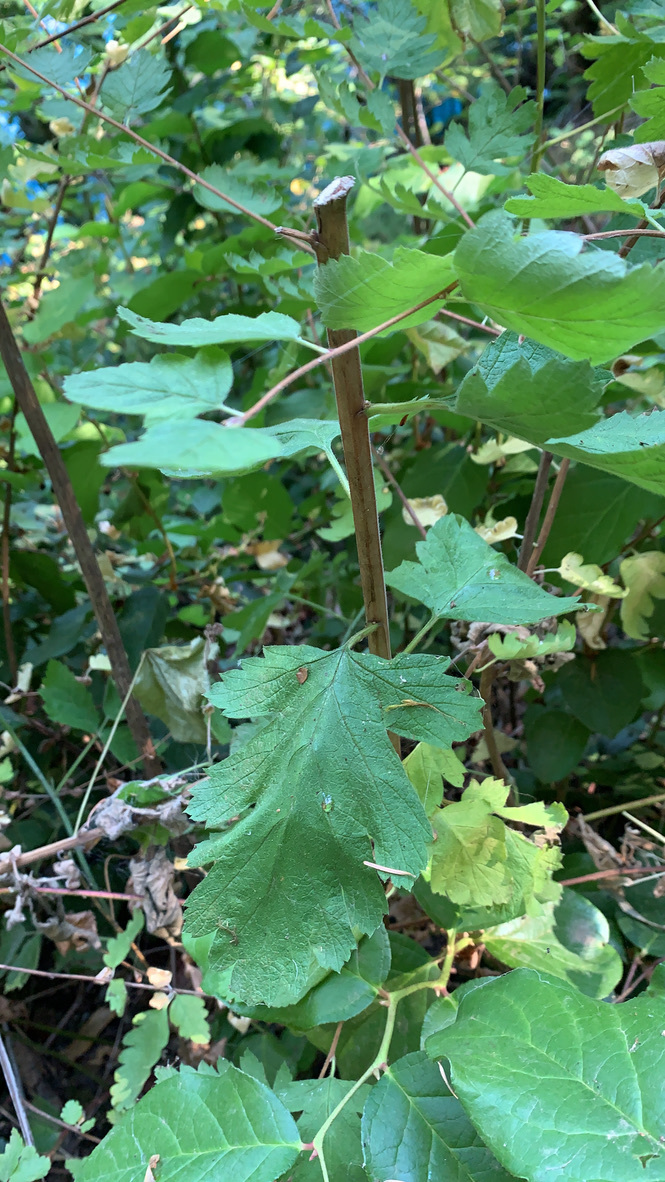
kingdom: Plantae
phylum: Tracheophyta
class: Magnoliopsida
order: Rosales
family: Rosaceae
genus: Holodiscus
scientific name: Holodiscus discolor
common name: Oceanspray
